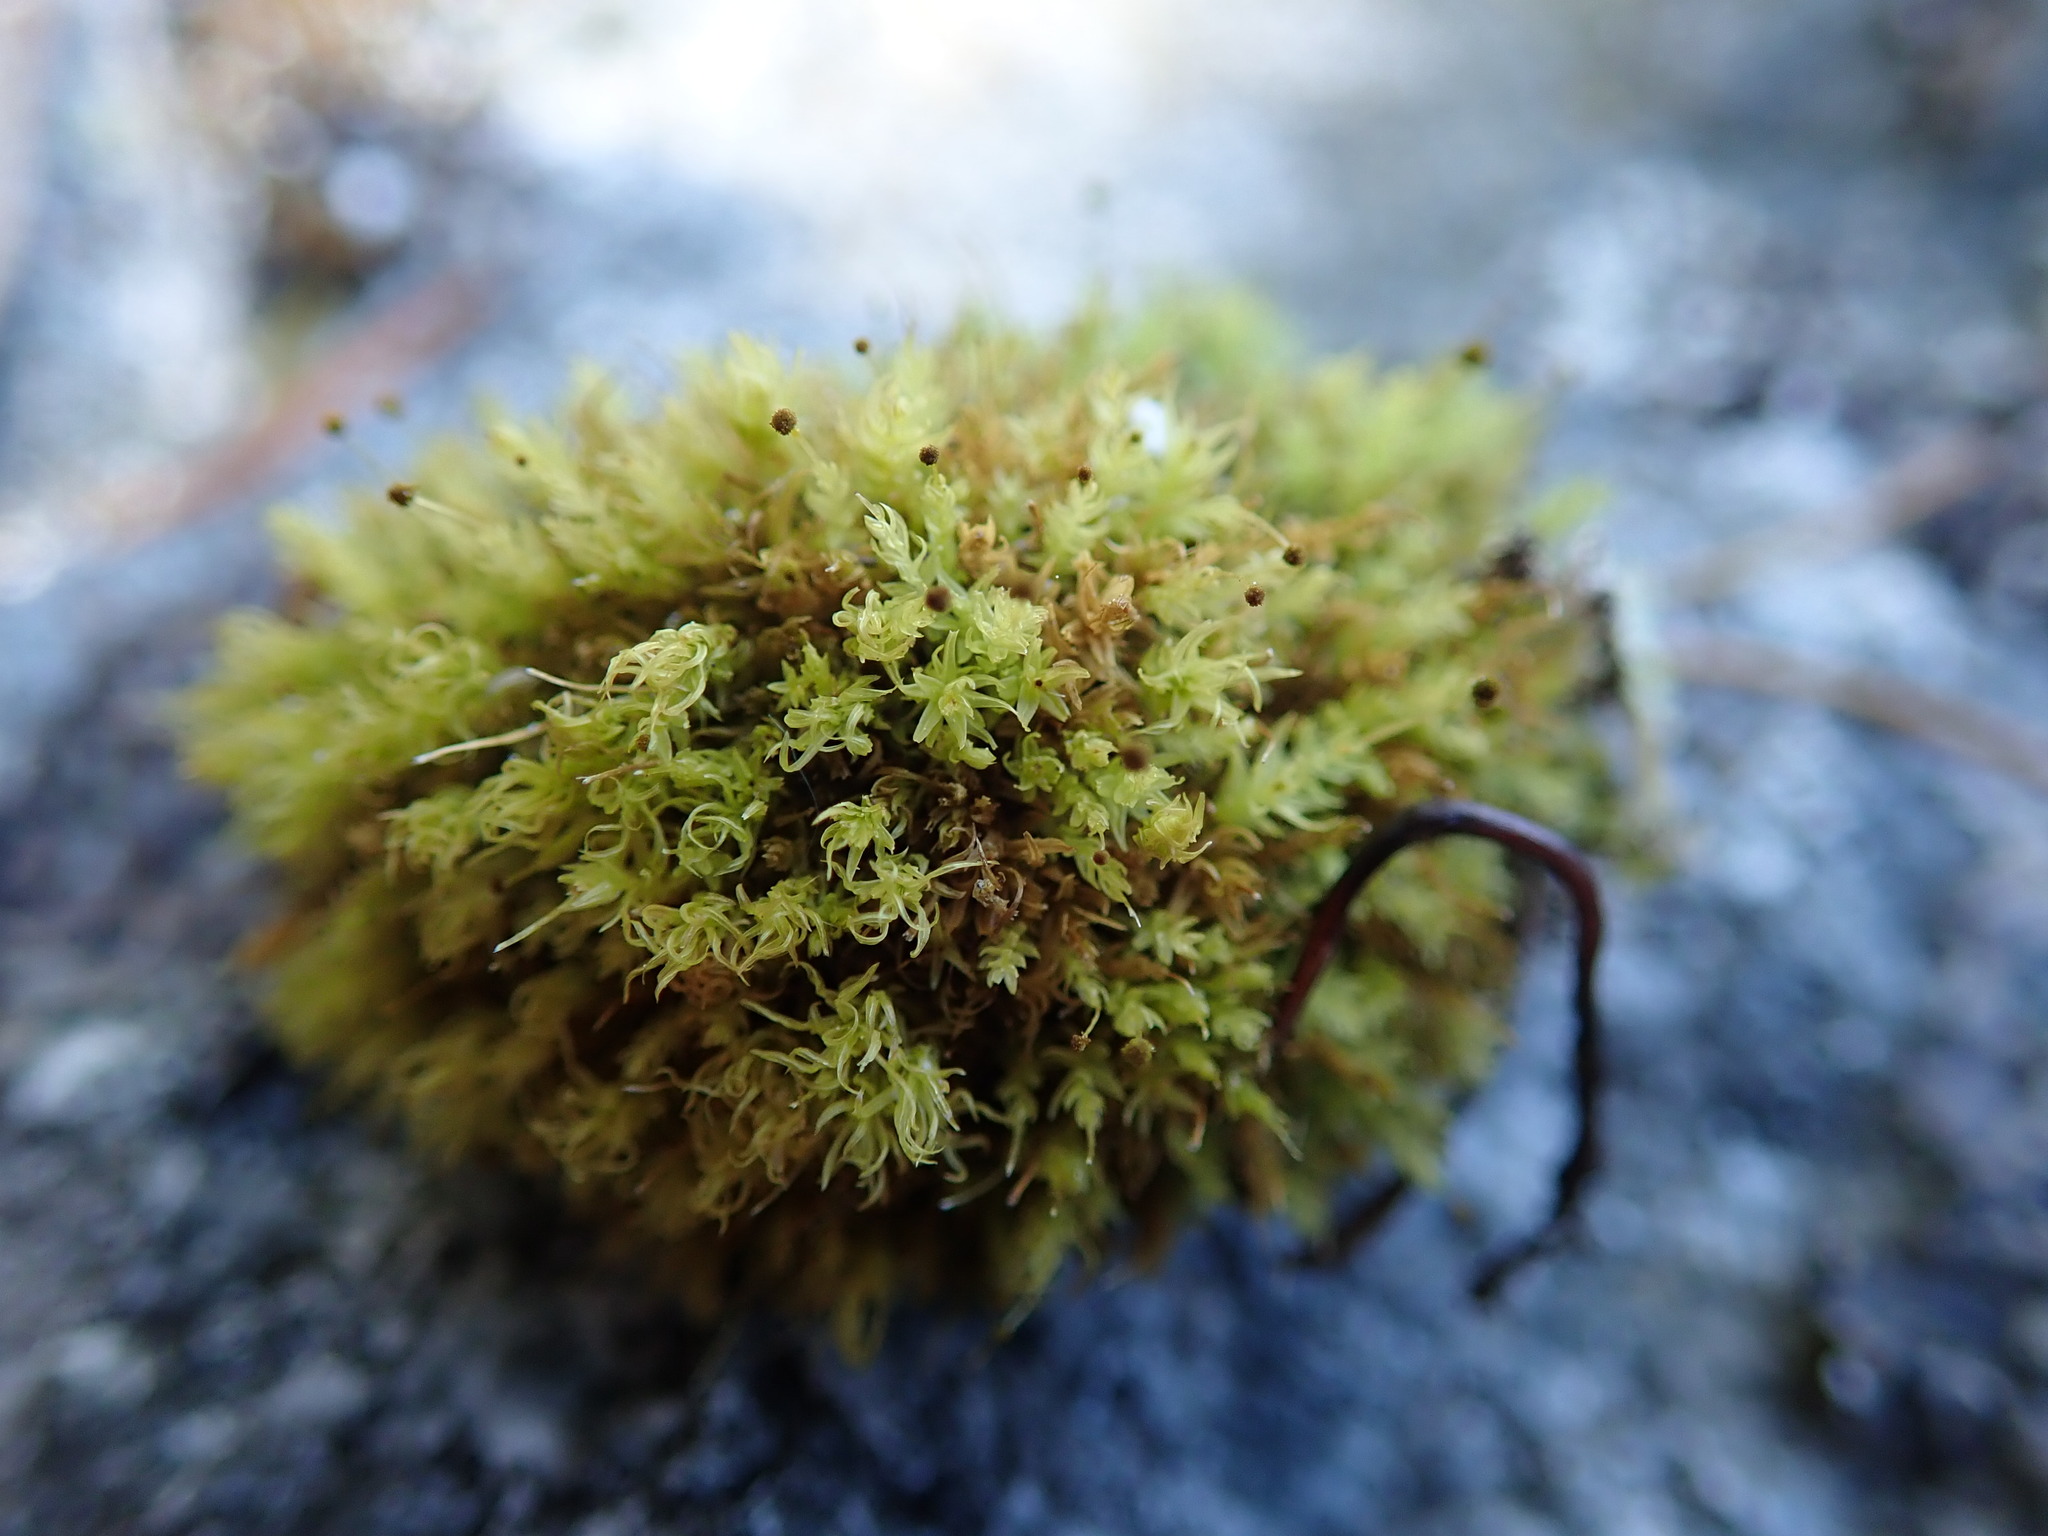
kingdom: Plantae
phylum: Bryophyta
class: Bryopsida
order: Aulacomniales
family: Aulacomniaceae
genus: Aulacomnium
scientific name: Aulacomnium androgynum
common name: Little groove moss
